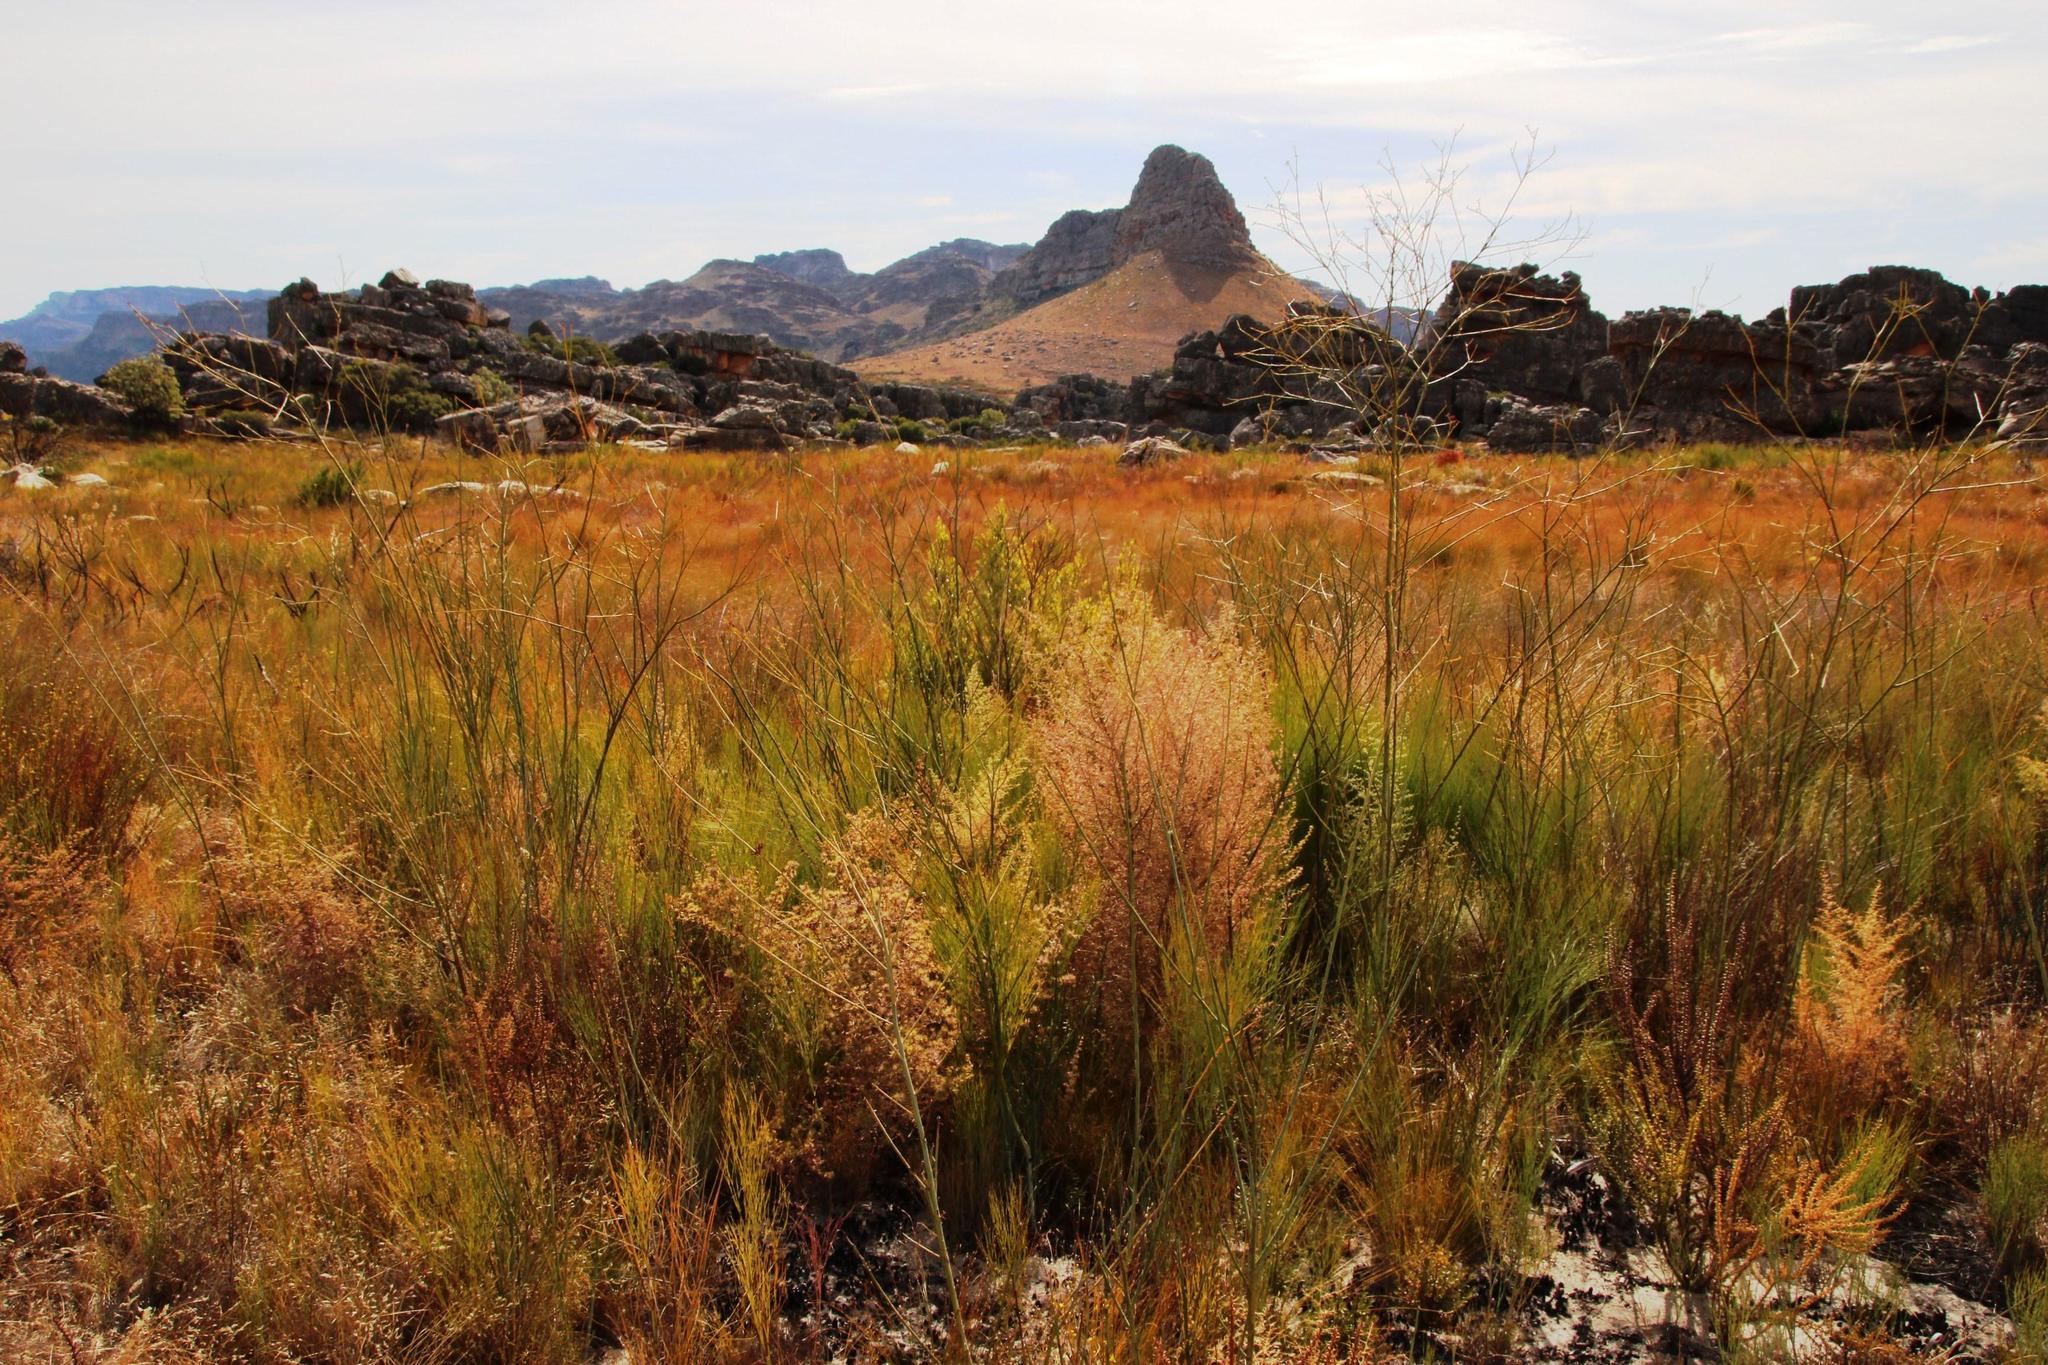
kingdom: Plantae
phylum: Tracheophyta
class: Magnoliopsida
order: Santalales
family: Thesiaceae
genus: Thesium
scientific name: Thesium strictum
